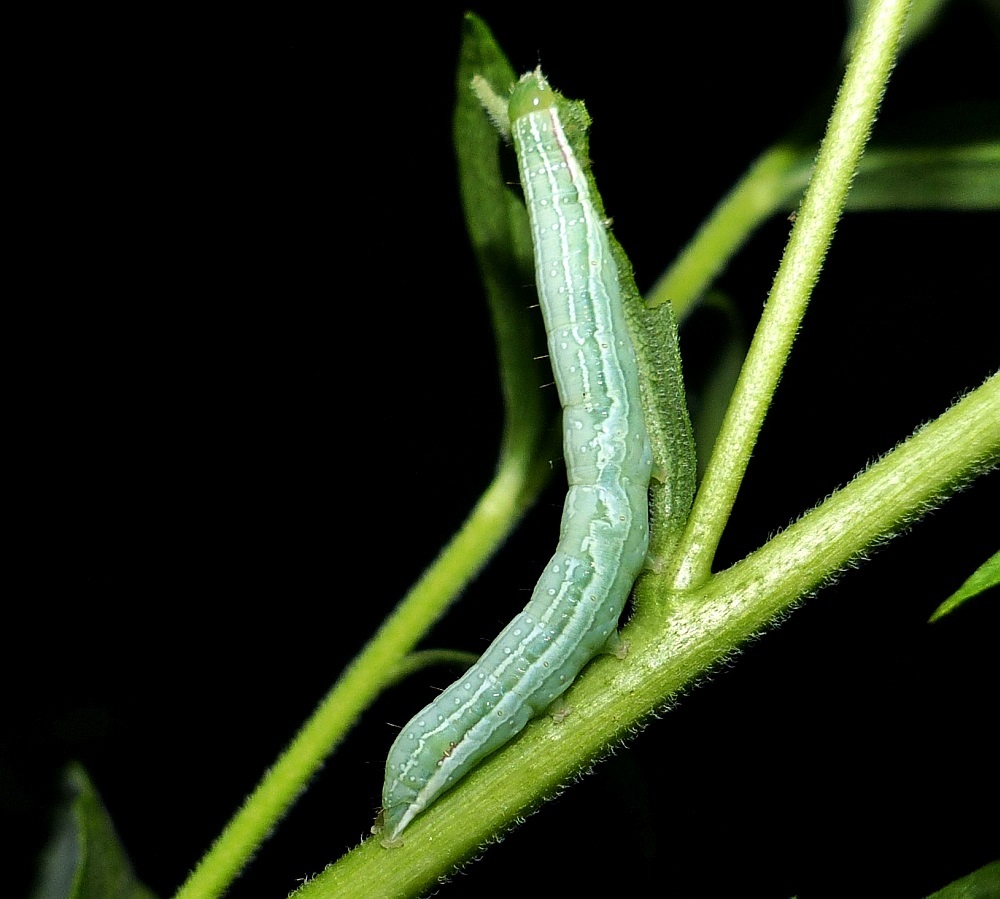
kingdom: Animalia
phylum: Arthropoda
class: Insecta
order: Lepidoptera
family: Noctuidae
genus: Leuconycta
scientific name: Leuconycta diphteroides
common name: Green leuconycta moth
